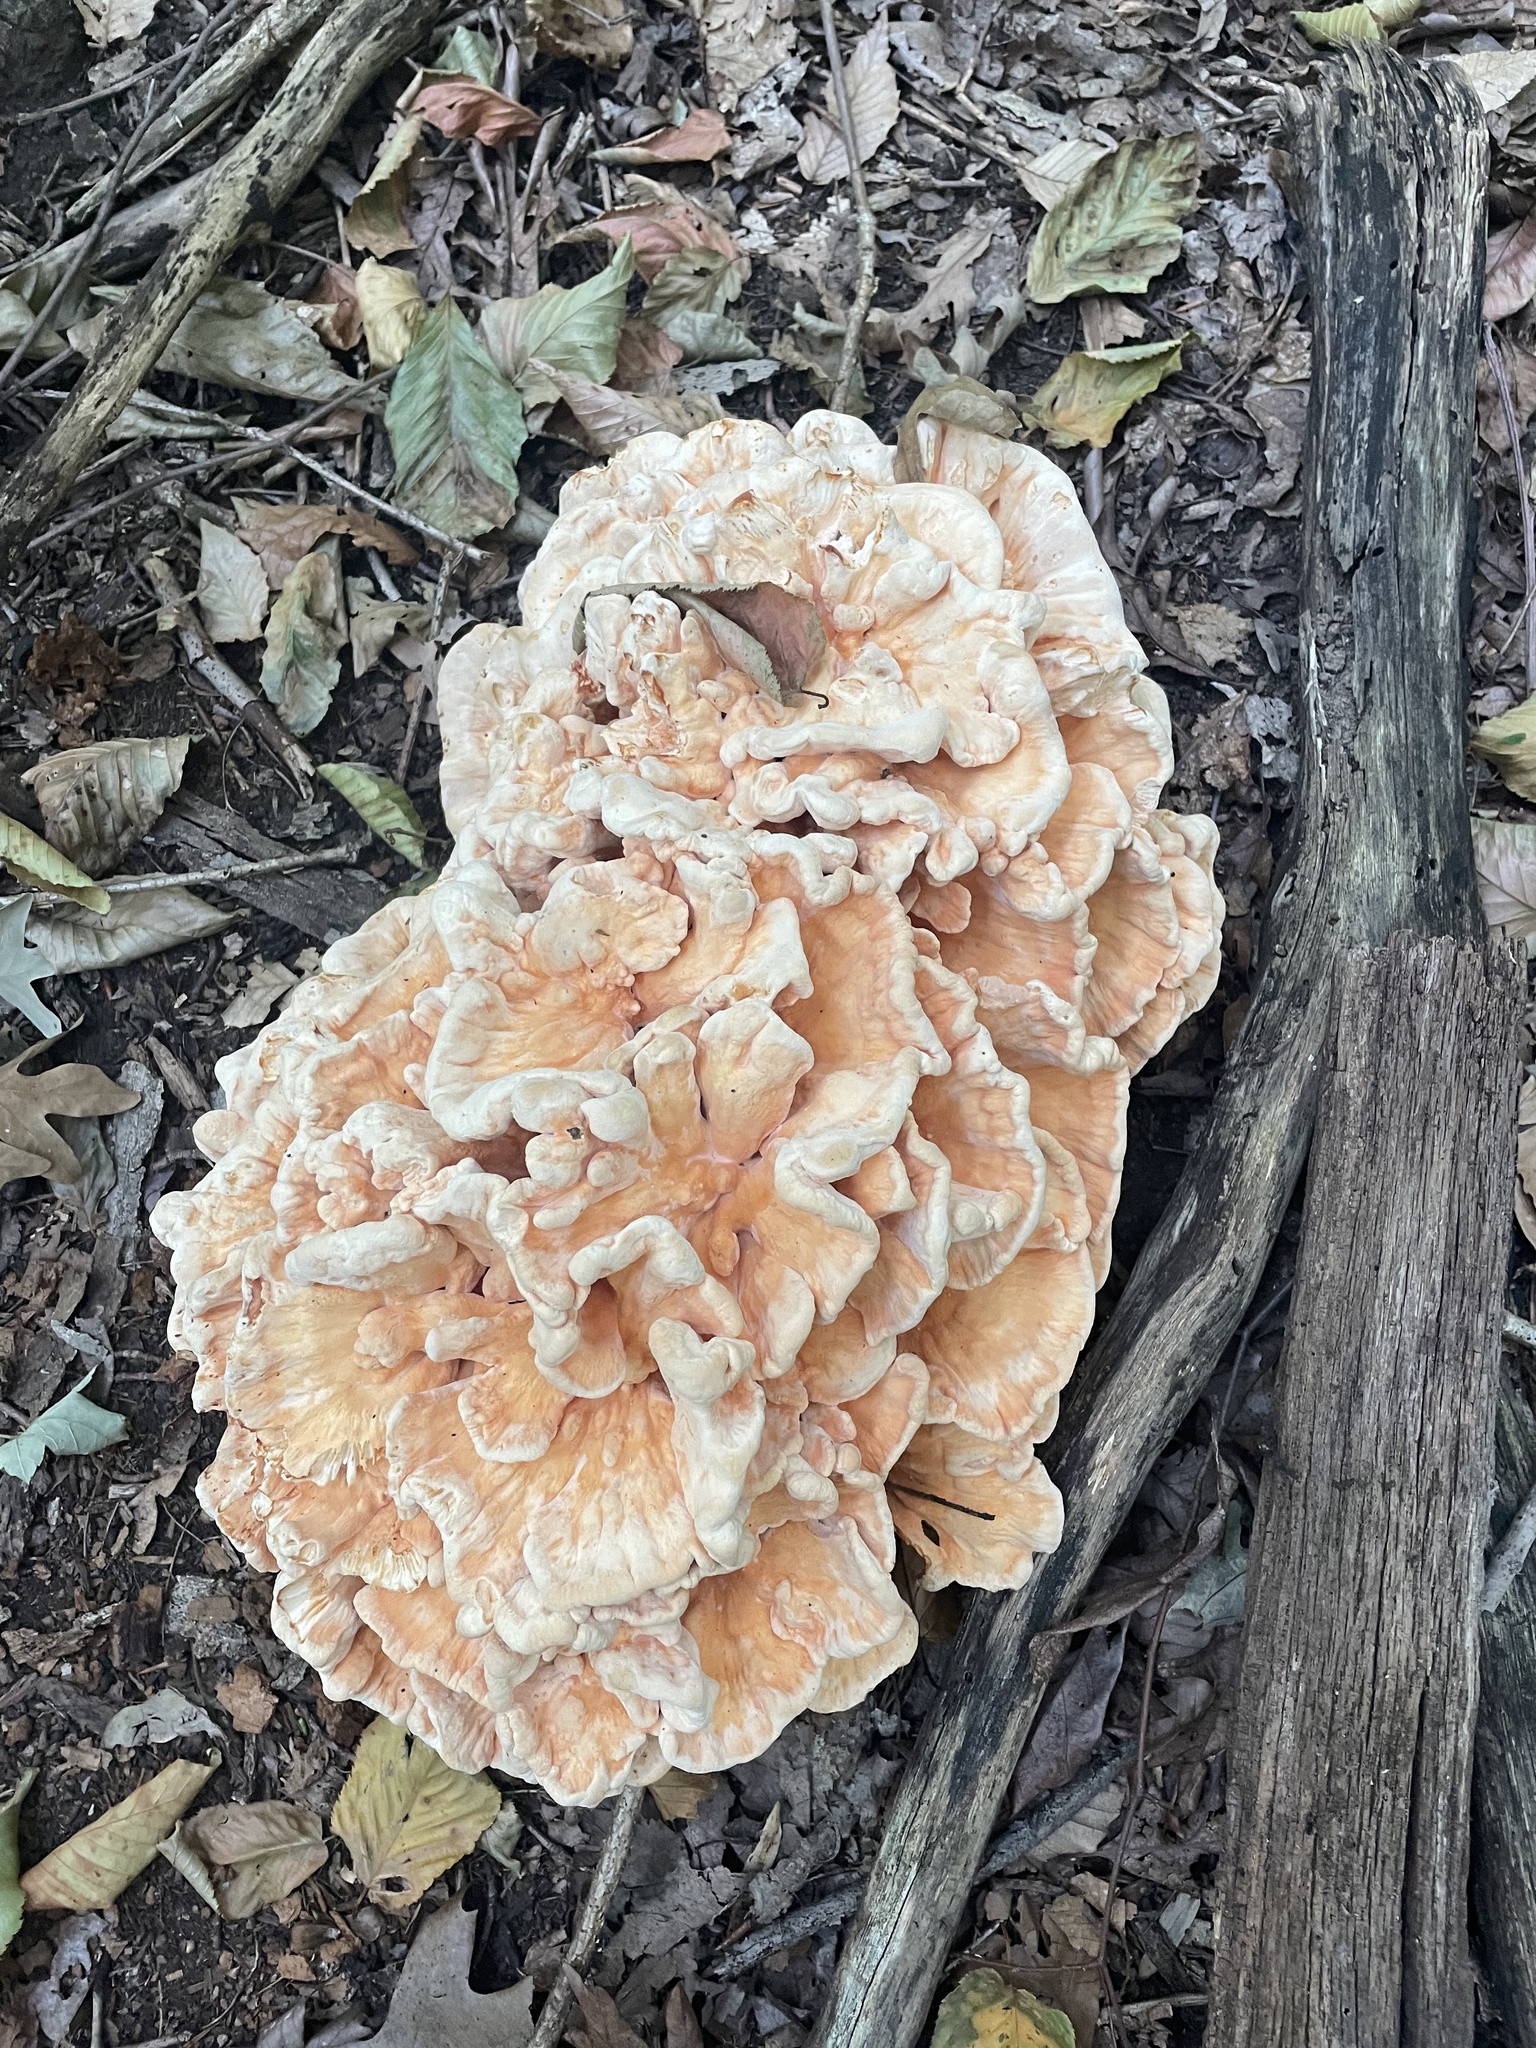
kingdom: Fungi
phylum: Basidiomycota
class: Agaricomycetes
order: Polyporales
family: Laetiporaceae
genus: Laetiporus
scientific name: Laetiporus sulphureus
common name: Chicken of the woods
